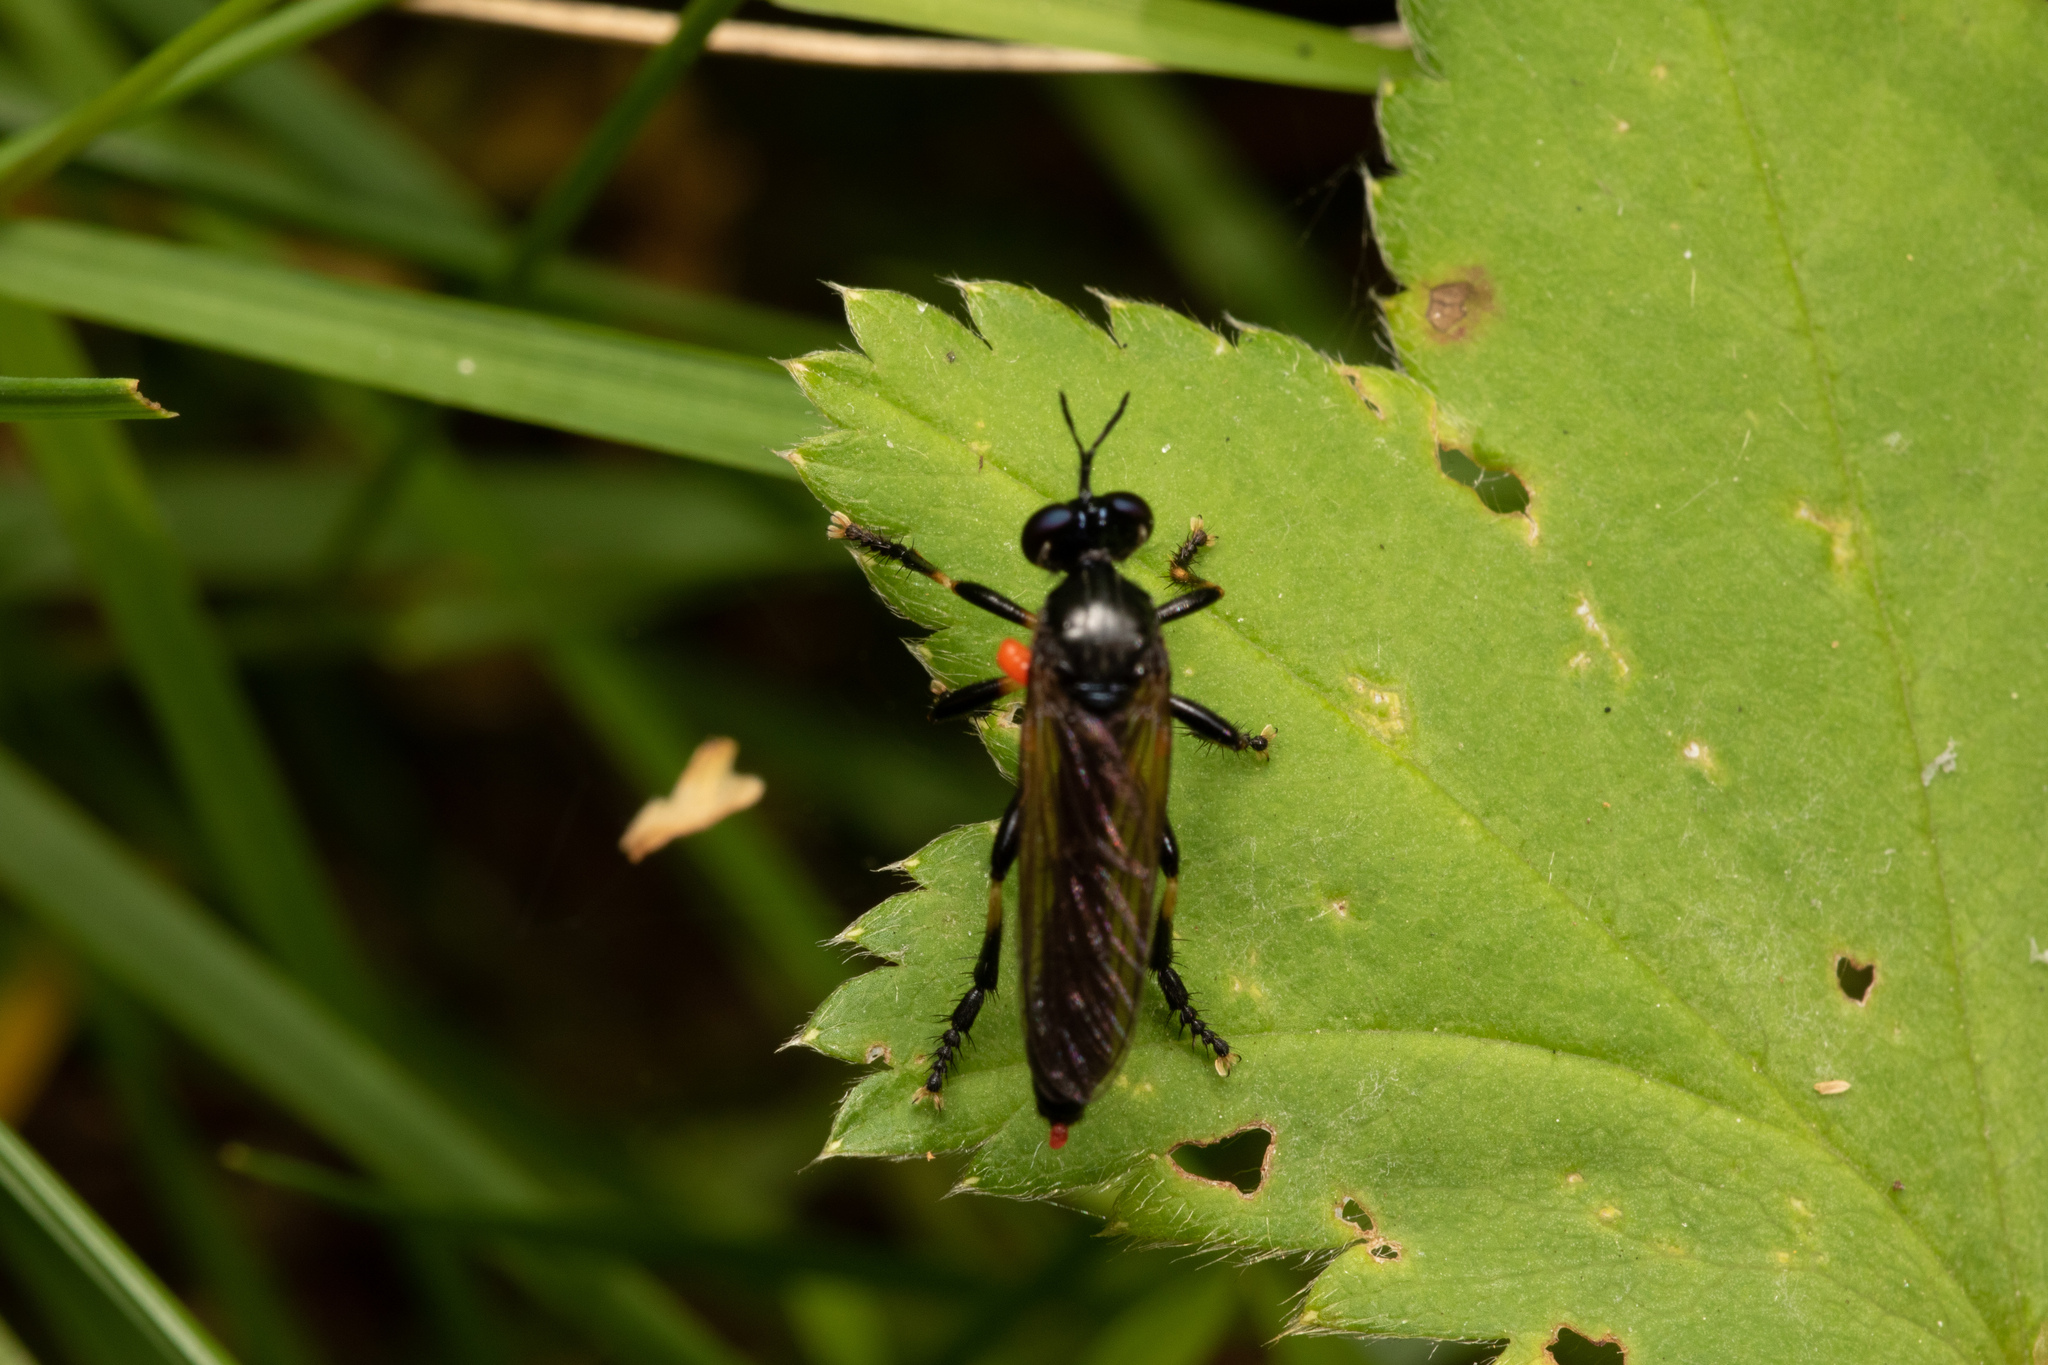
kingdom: Animalia
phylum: Arthropoda
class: Insecta
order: Diptera
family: Asilidae
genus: Dioctria
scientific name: Dioctria cothurnata
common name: Scarce red-legged robberfly
